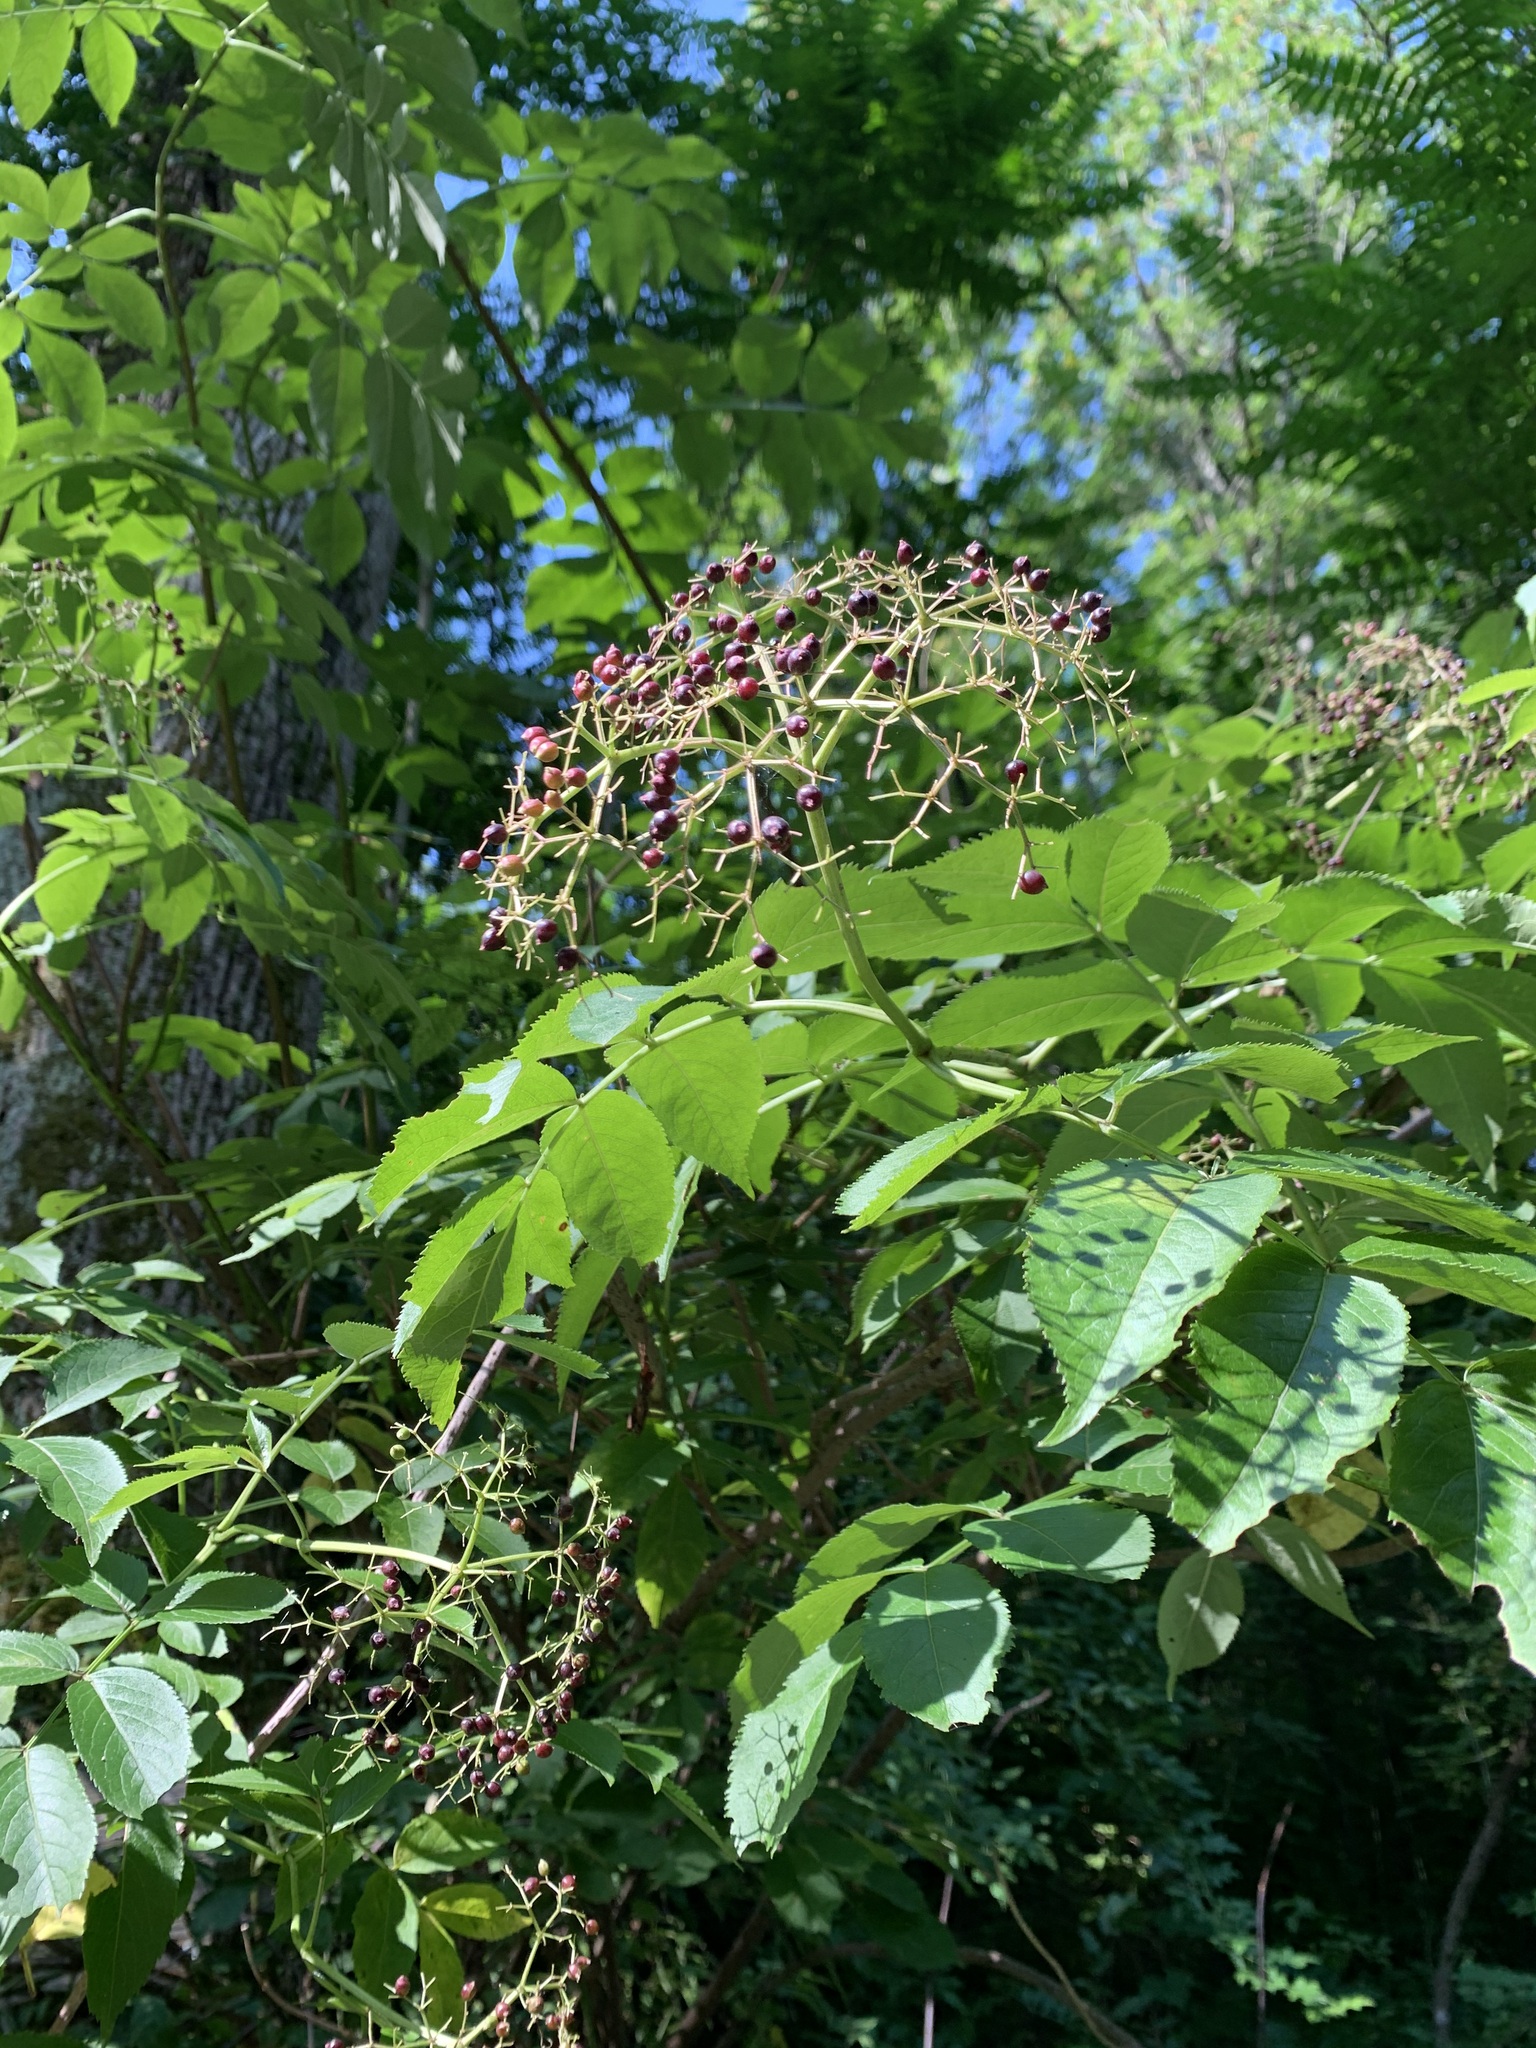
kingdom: Plantae
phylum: Tracheophyta
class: Magnoliopsida
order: Dipsacales
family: Viburnaceae
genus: Sambucus
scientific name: Sambucus canadensis
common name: American elder
